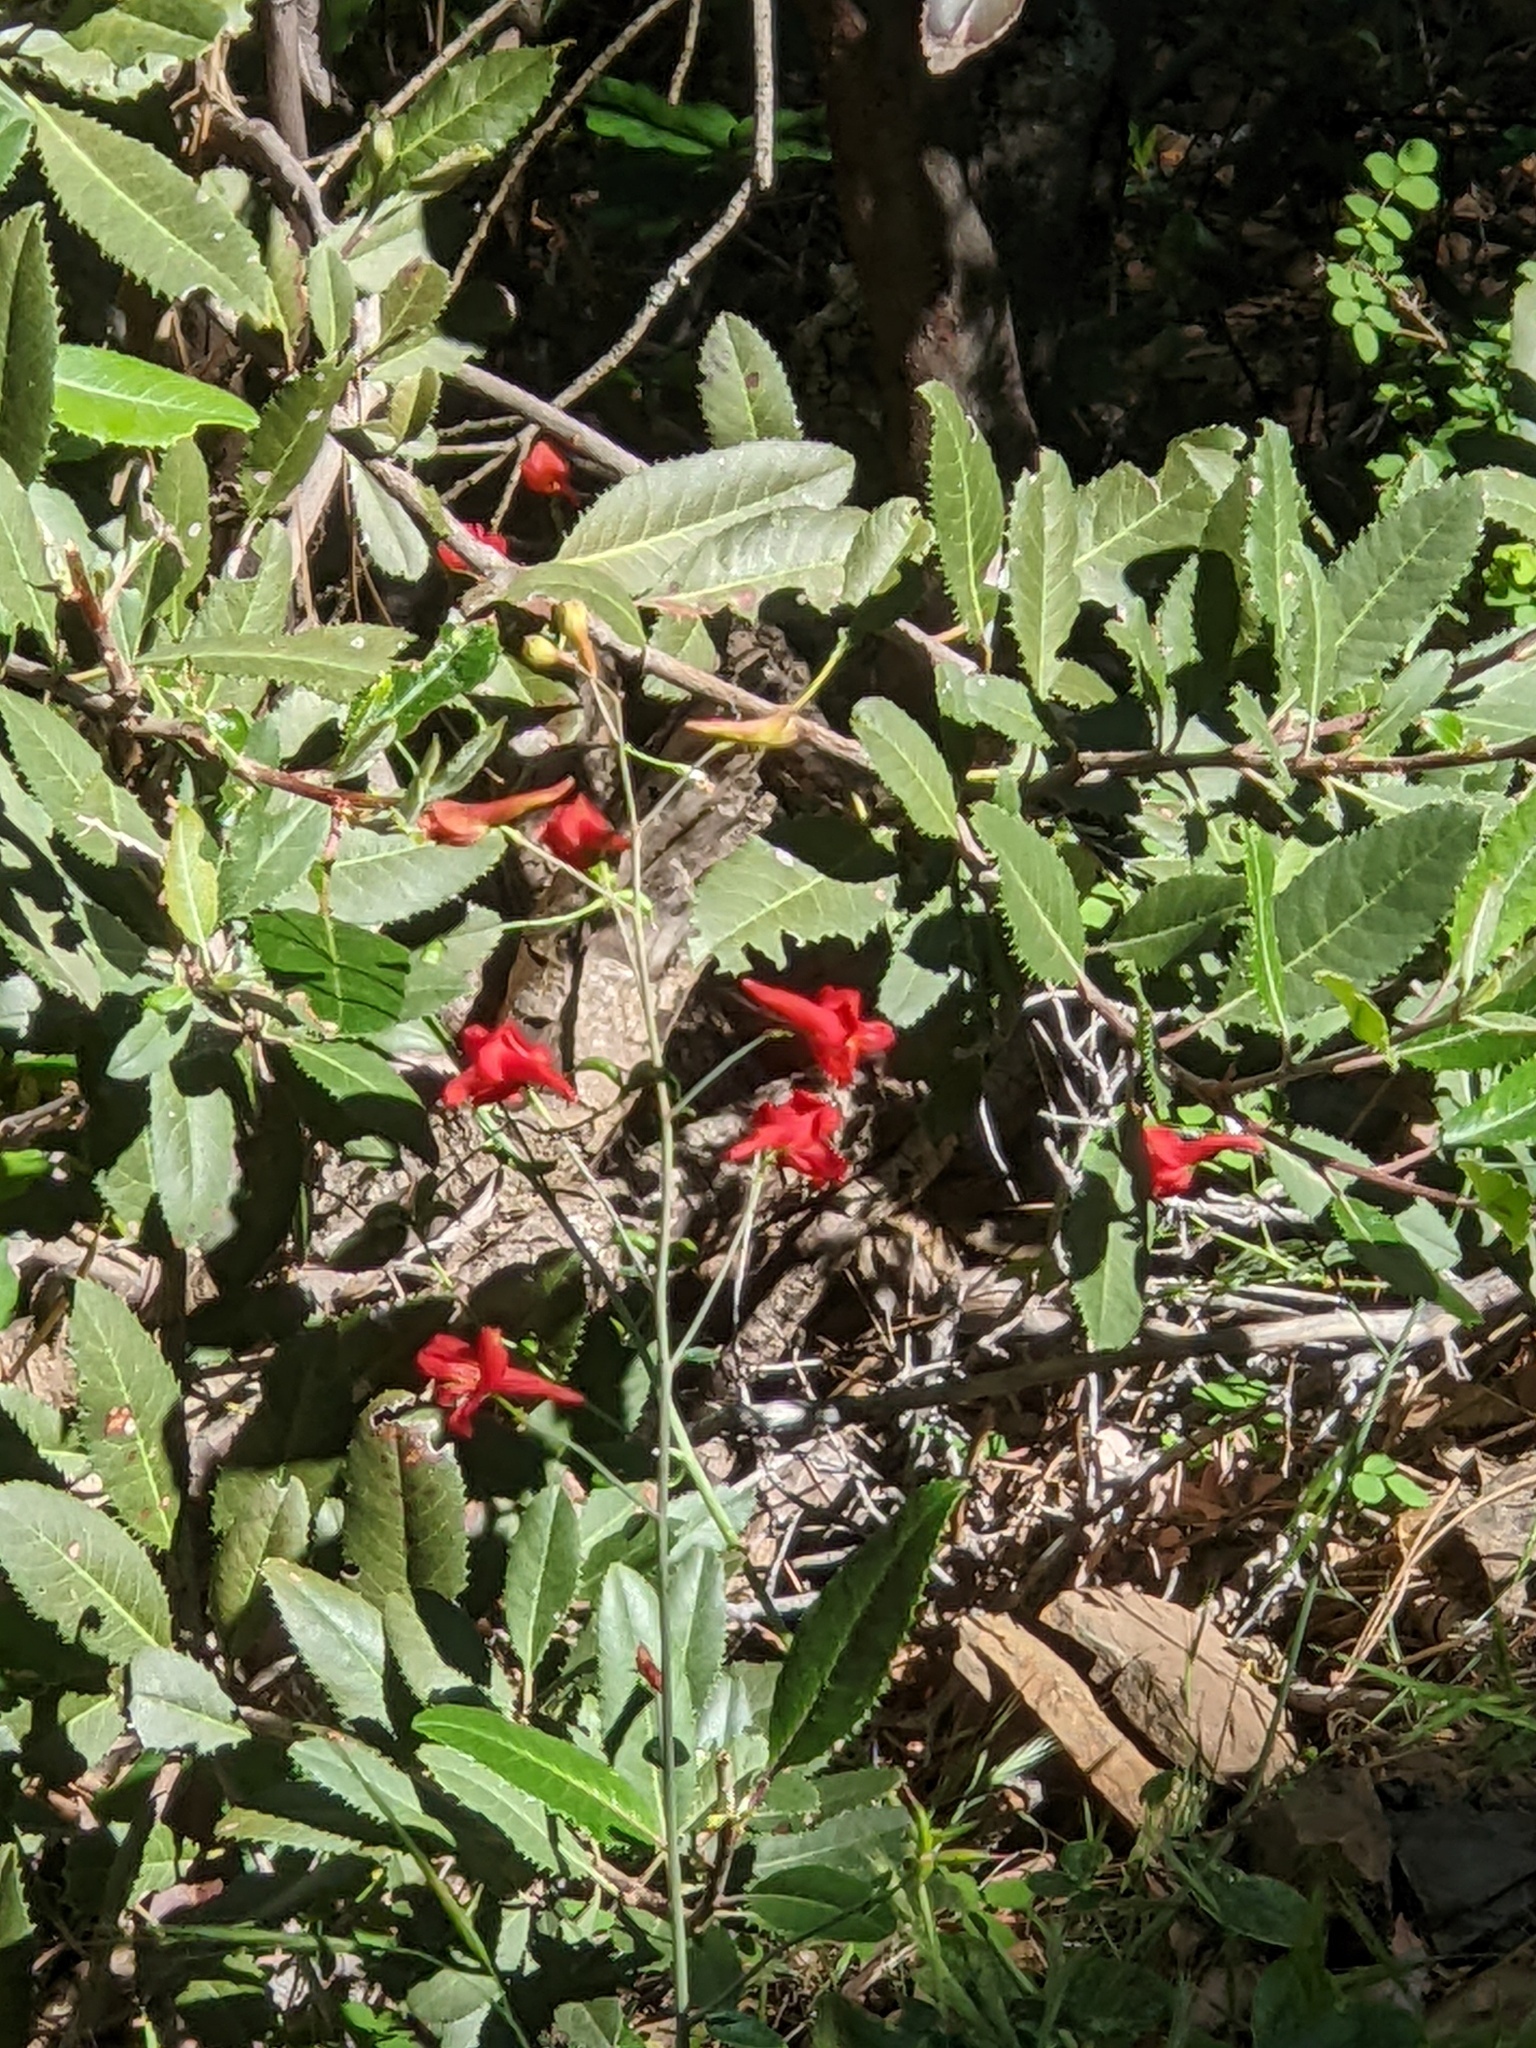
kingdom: Plantae
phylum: Tracheophyta
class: Magnoliopsida
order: Ranunculales
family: Ranunculaceae
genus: Delphinium
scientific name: Delphinium nudicaule
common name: Red larkspur
